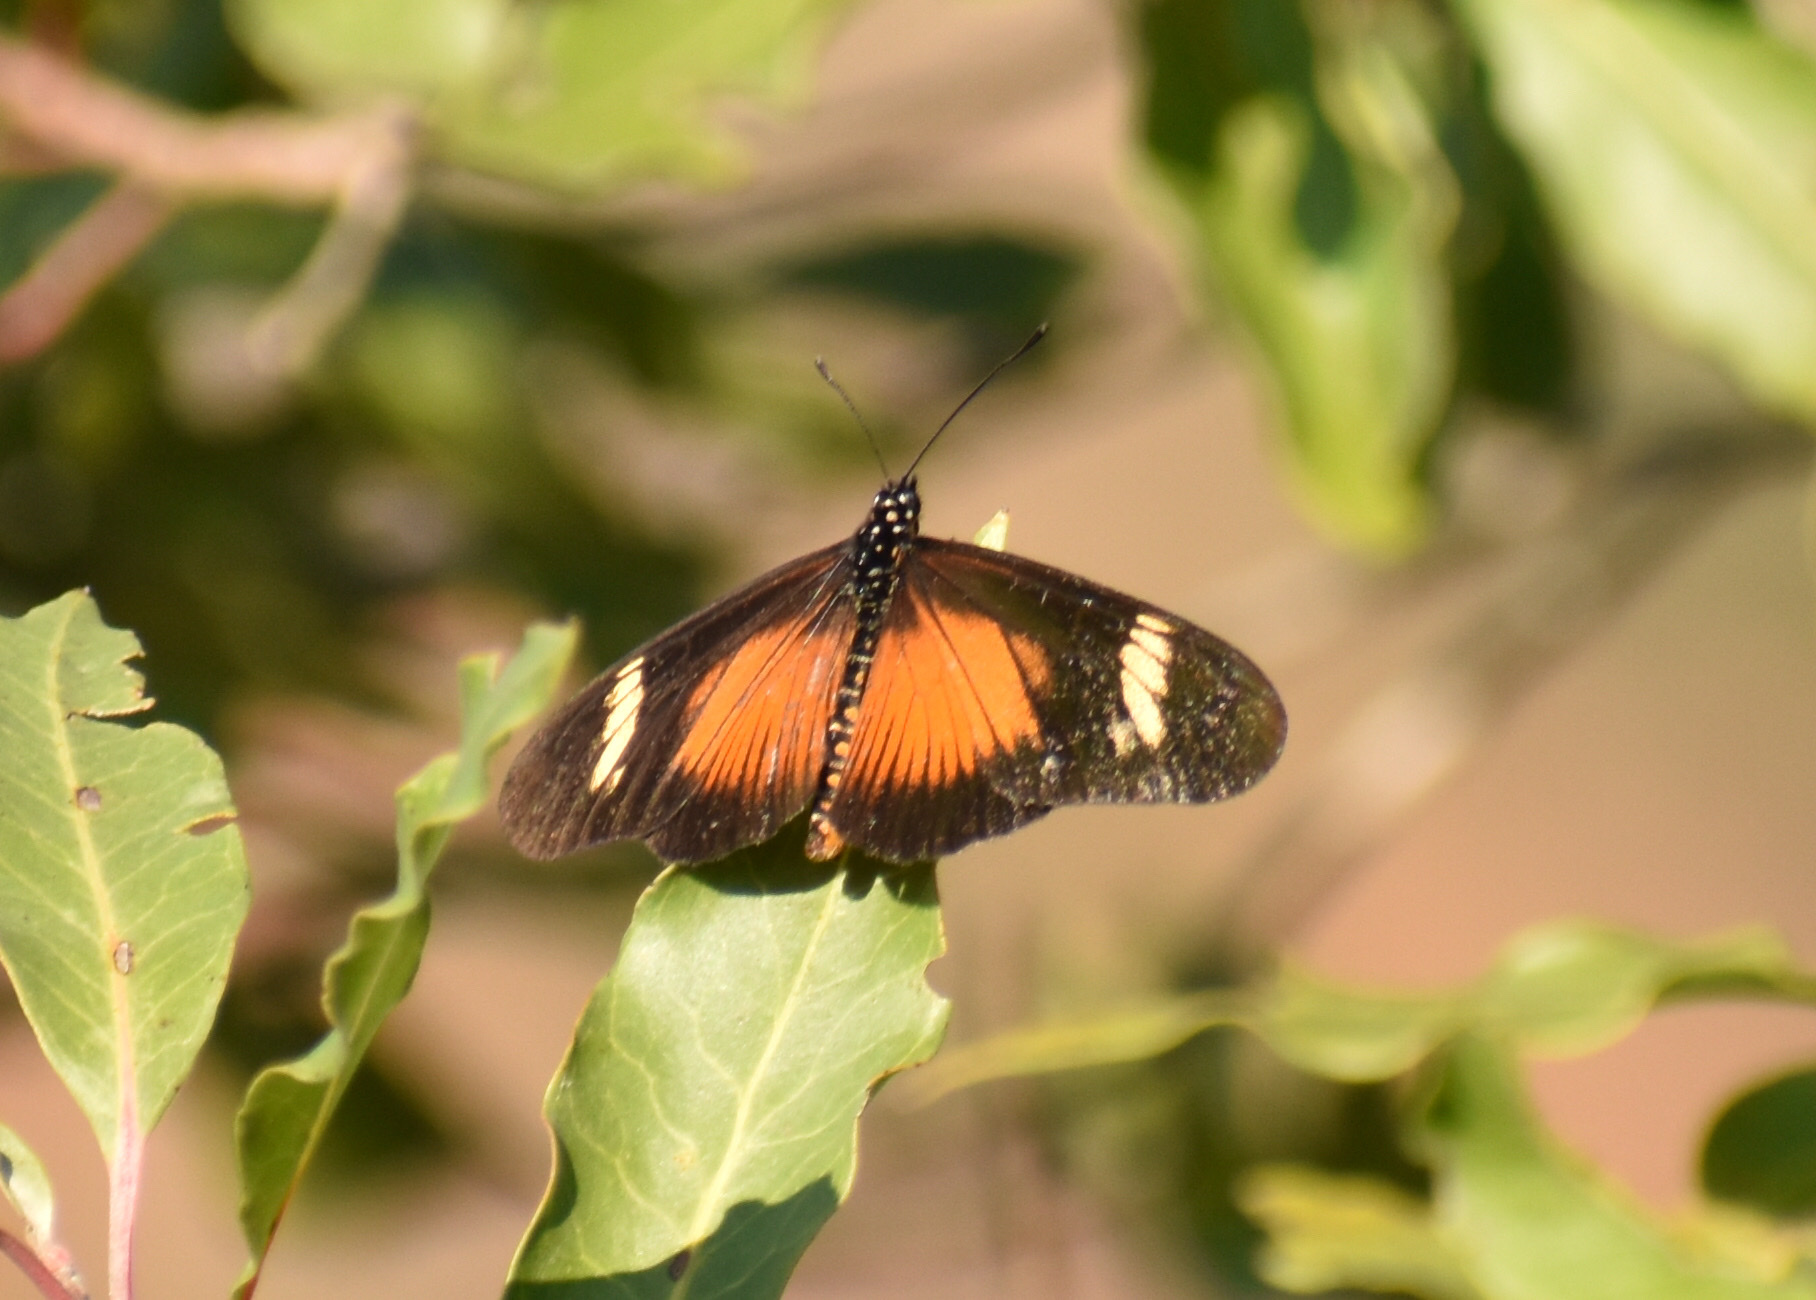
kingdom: Animalia
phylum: Arthropoda
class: Insecta
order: Lepidoptera
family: Nymphalidae
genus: Acraea
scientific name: Acraea esebria
